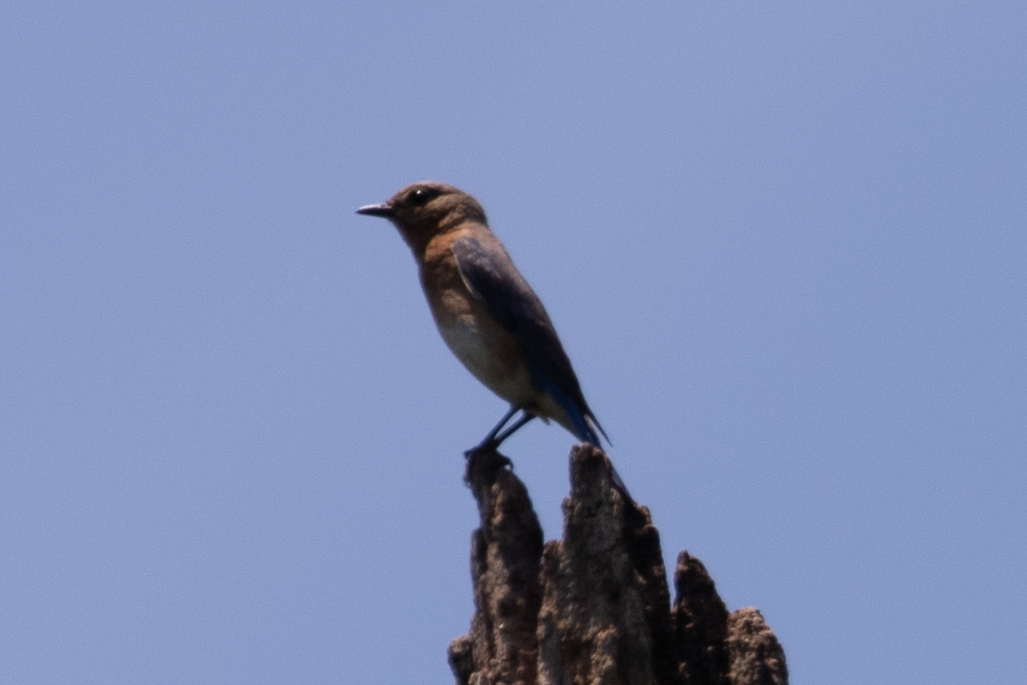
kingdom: Animalia
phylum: Chordata
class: Aves
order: Passeriformes
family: Turdidae
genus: Sialia
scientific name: Sialia sialis
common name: Eastern bluebird
